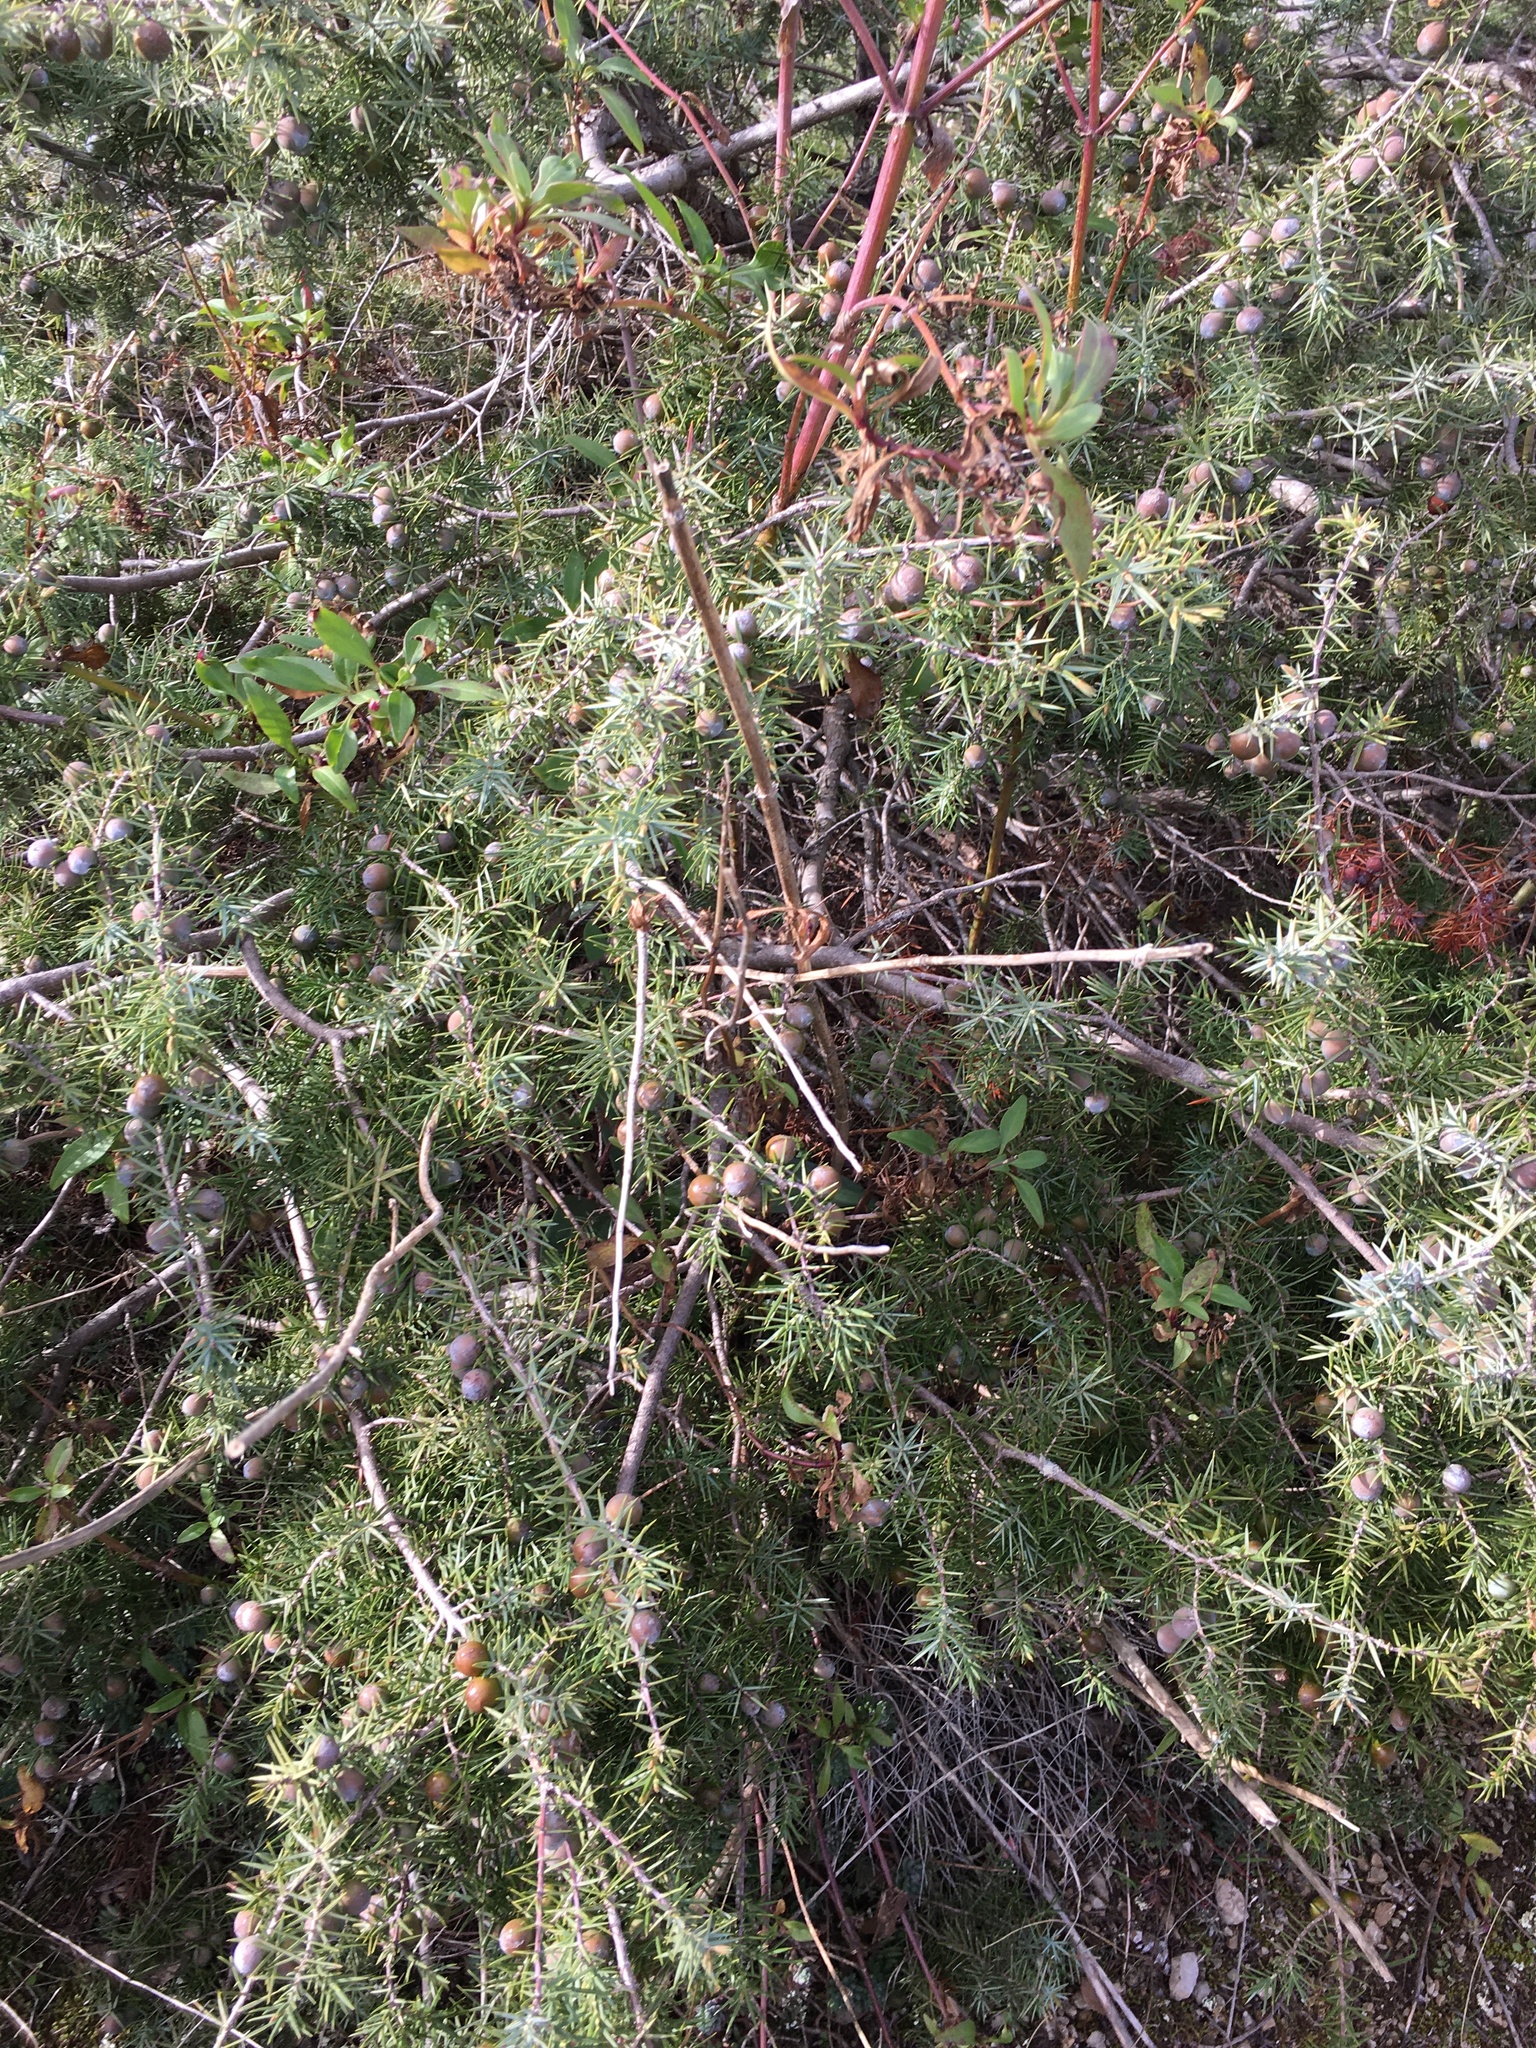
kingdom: Plantae
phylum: Tracheophyta
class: Pinopsida
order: Pinales
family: Cupressaceae
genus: Juniperus
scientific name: Juniperus communis
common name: Common juniper
